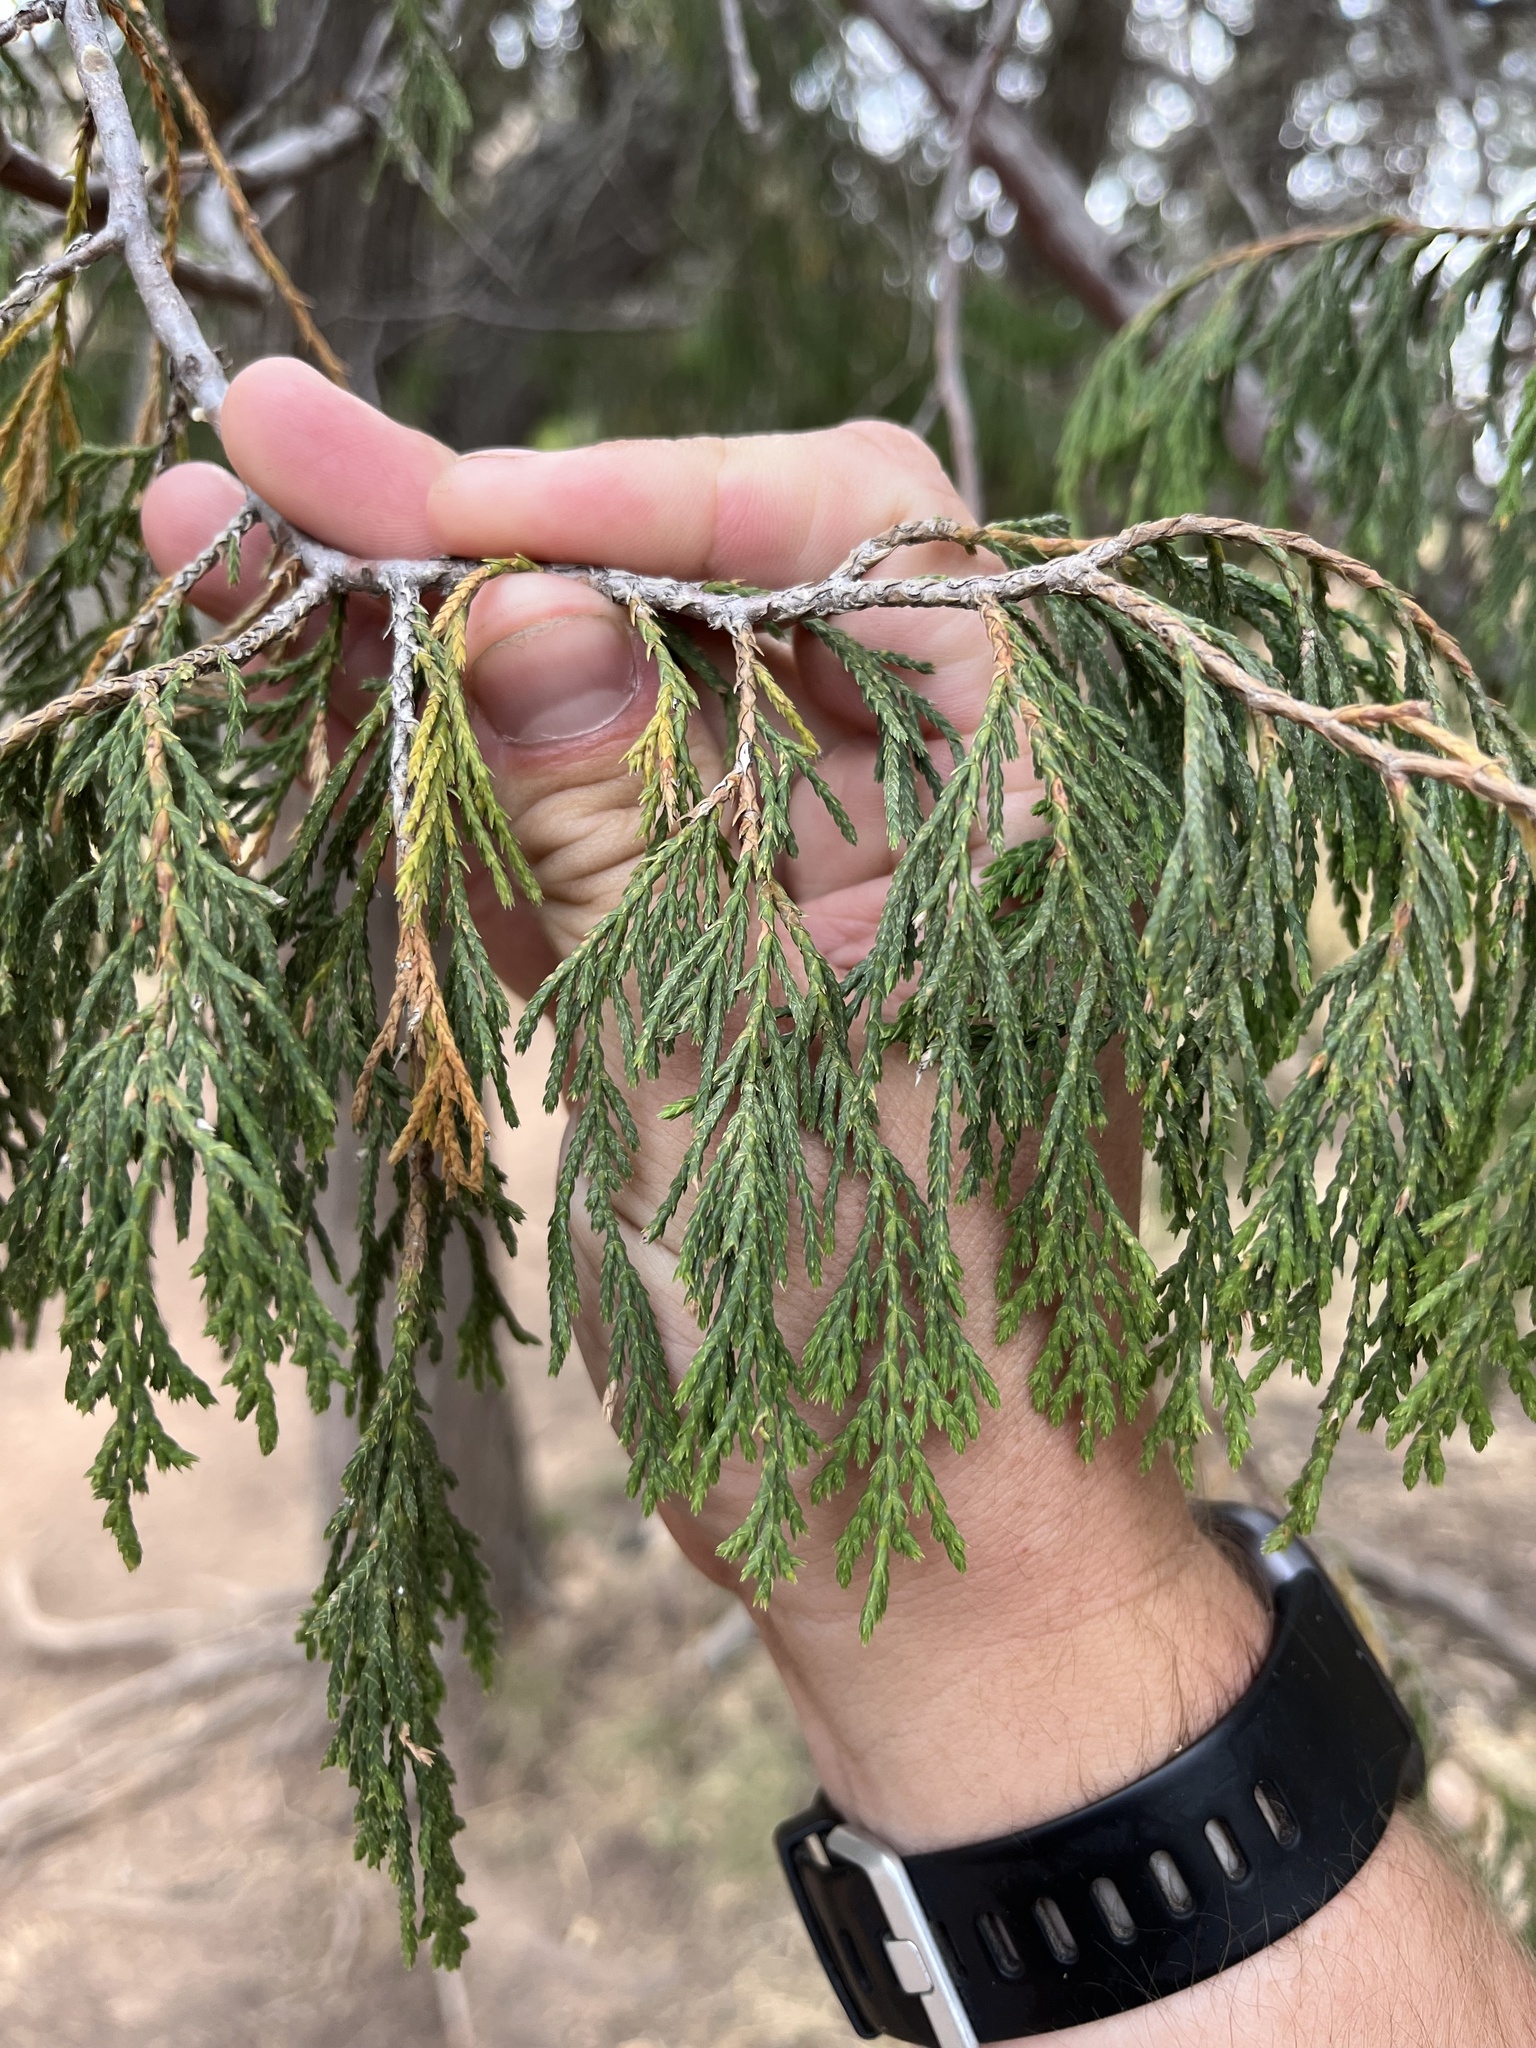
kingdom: Plantae
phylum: Tracheophyta
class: Pinopsida
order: Pinales
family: Cupressaceae
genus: Juniperus
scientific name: Juniperus flaccida
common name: Drooping juniper
